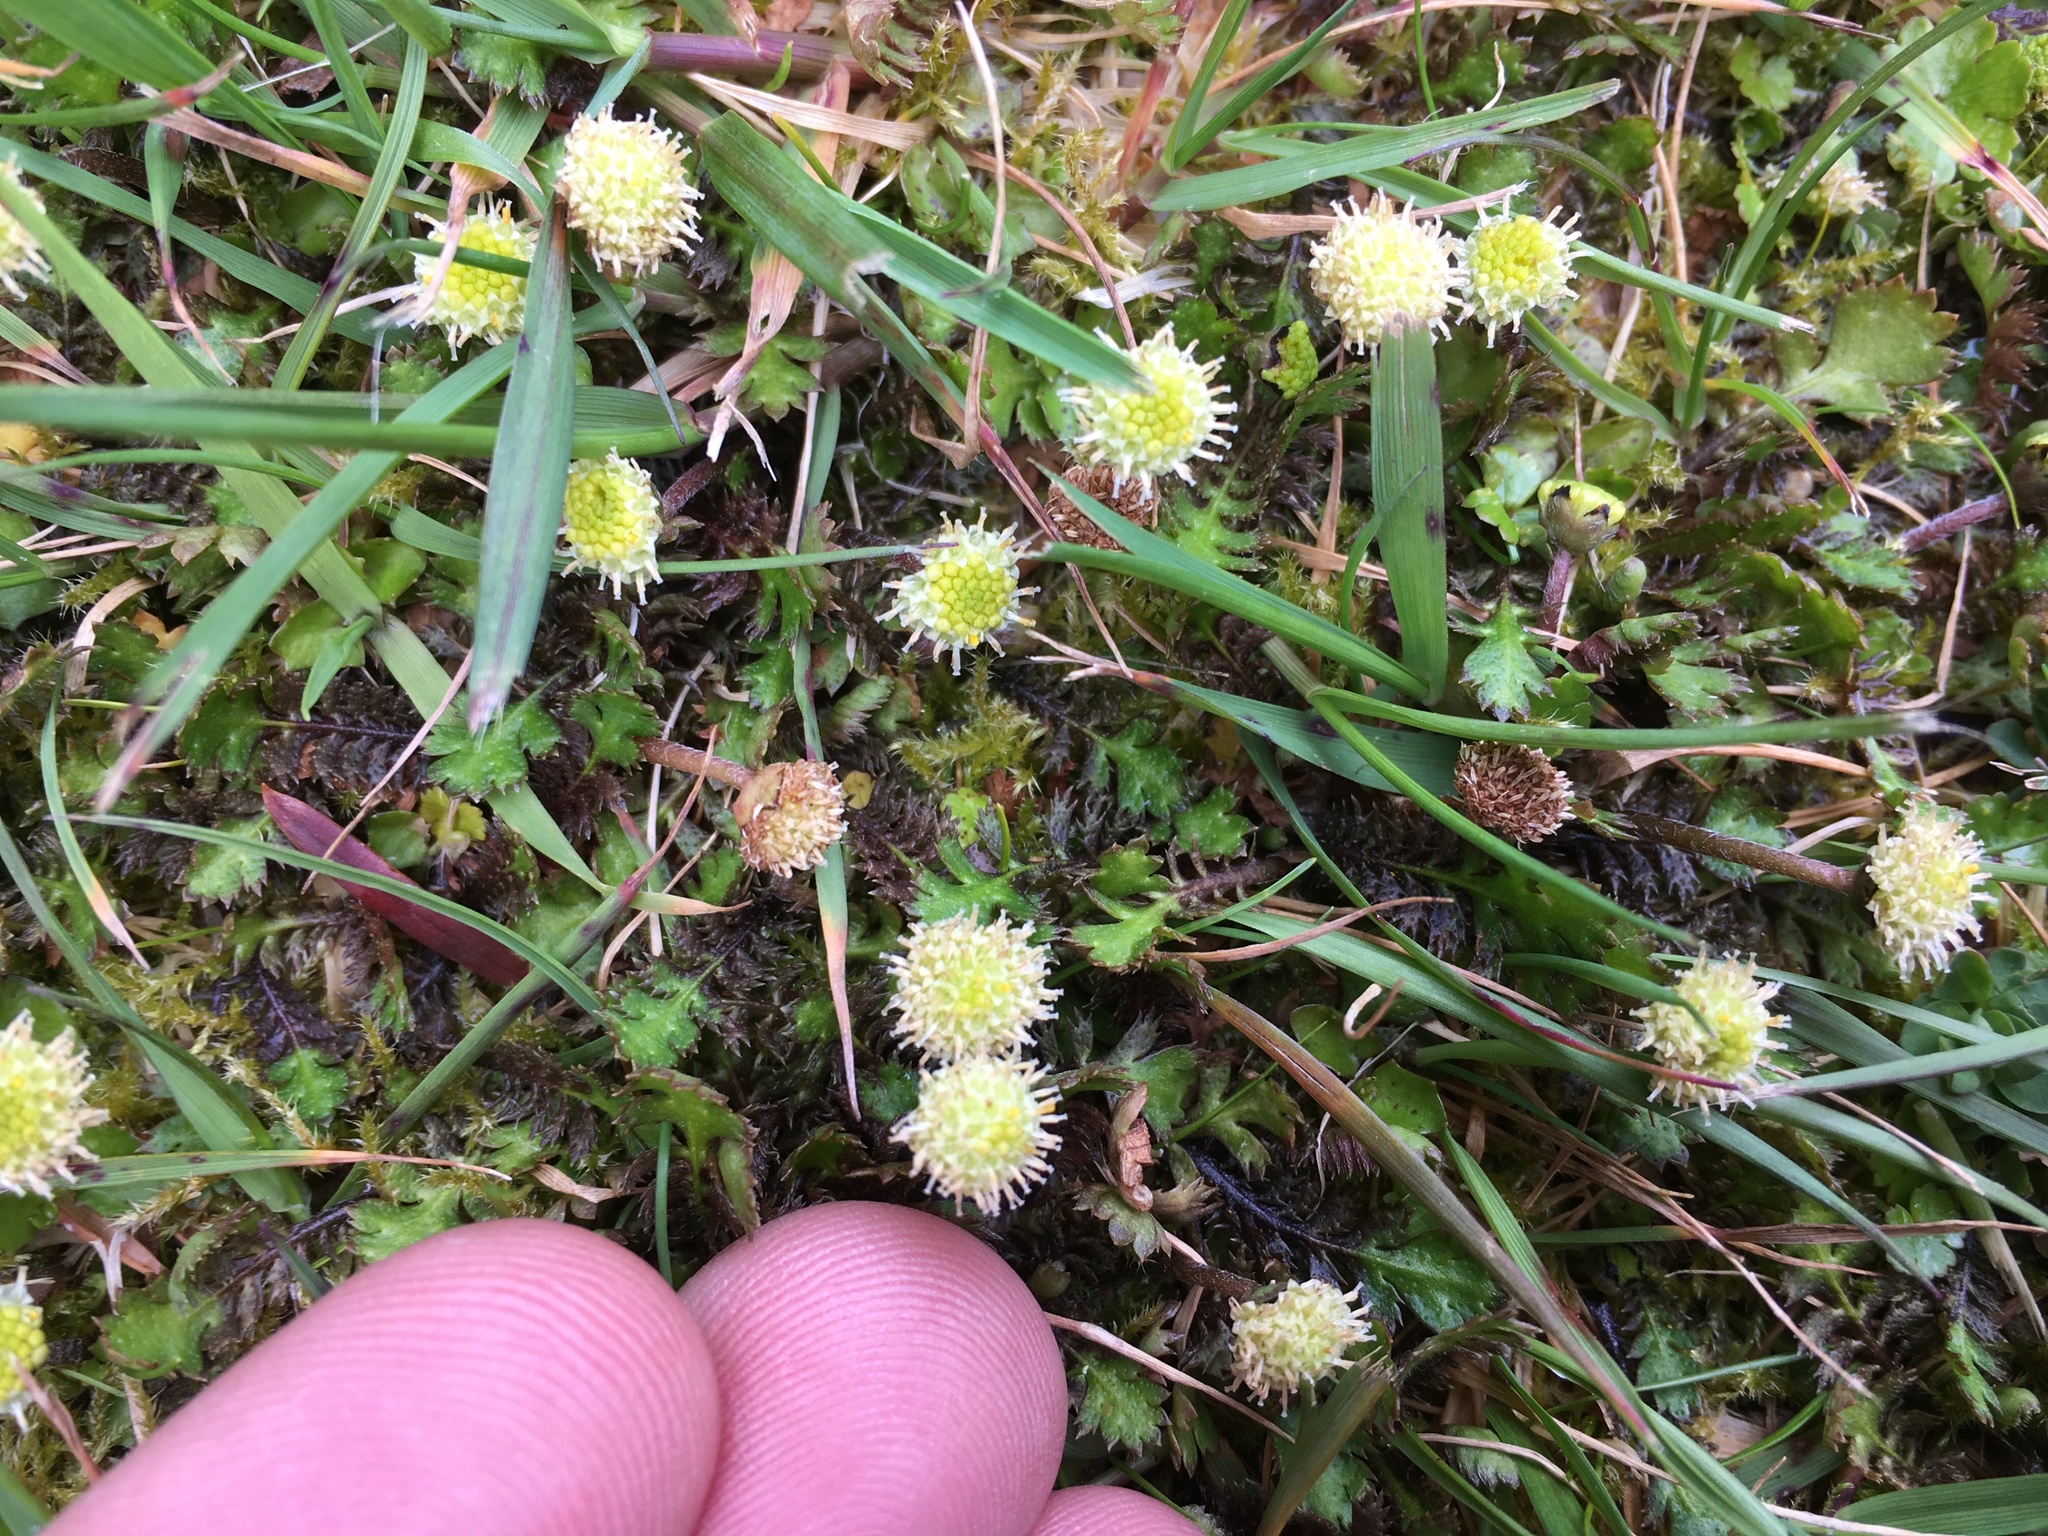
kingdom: Plantae
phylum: Tracheophyta
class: Magnoliopsida
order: Asterales
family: Asteraceae
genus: Leptinella
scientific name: Leptinella squalida
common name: New zealand brass-buttons
